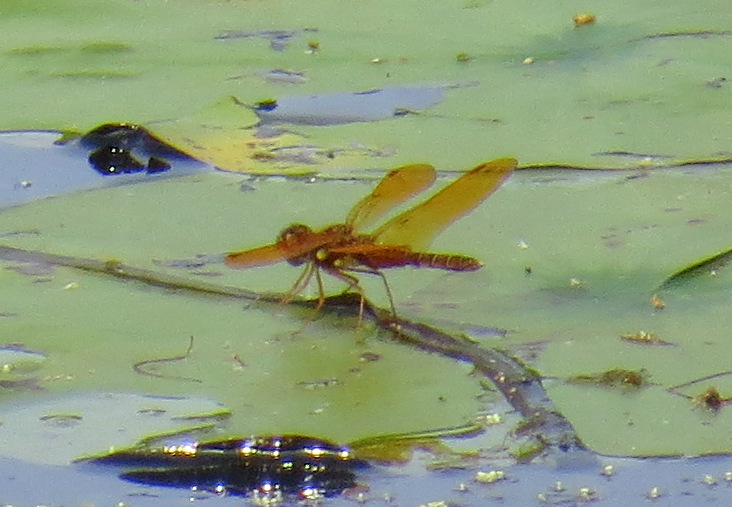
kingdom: Animalia
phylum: Arthropoda
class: Insecta
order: Odonata
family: Libellulidae
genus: Perithemis
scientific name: Perithemis tenera
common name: Eastern amberwing
